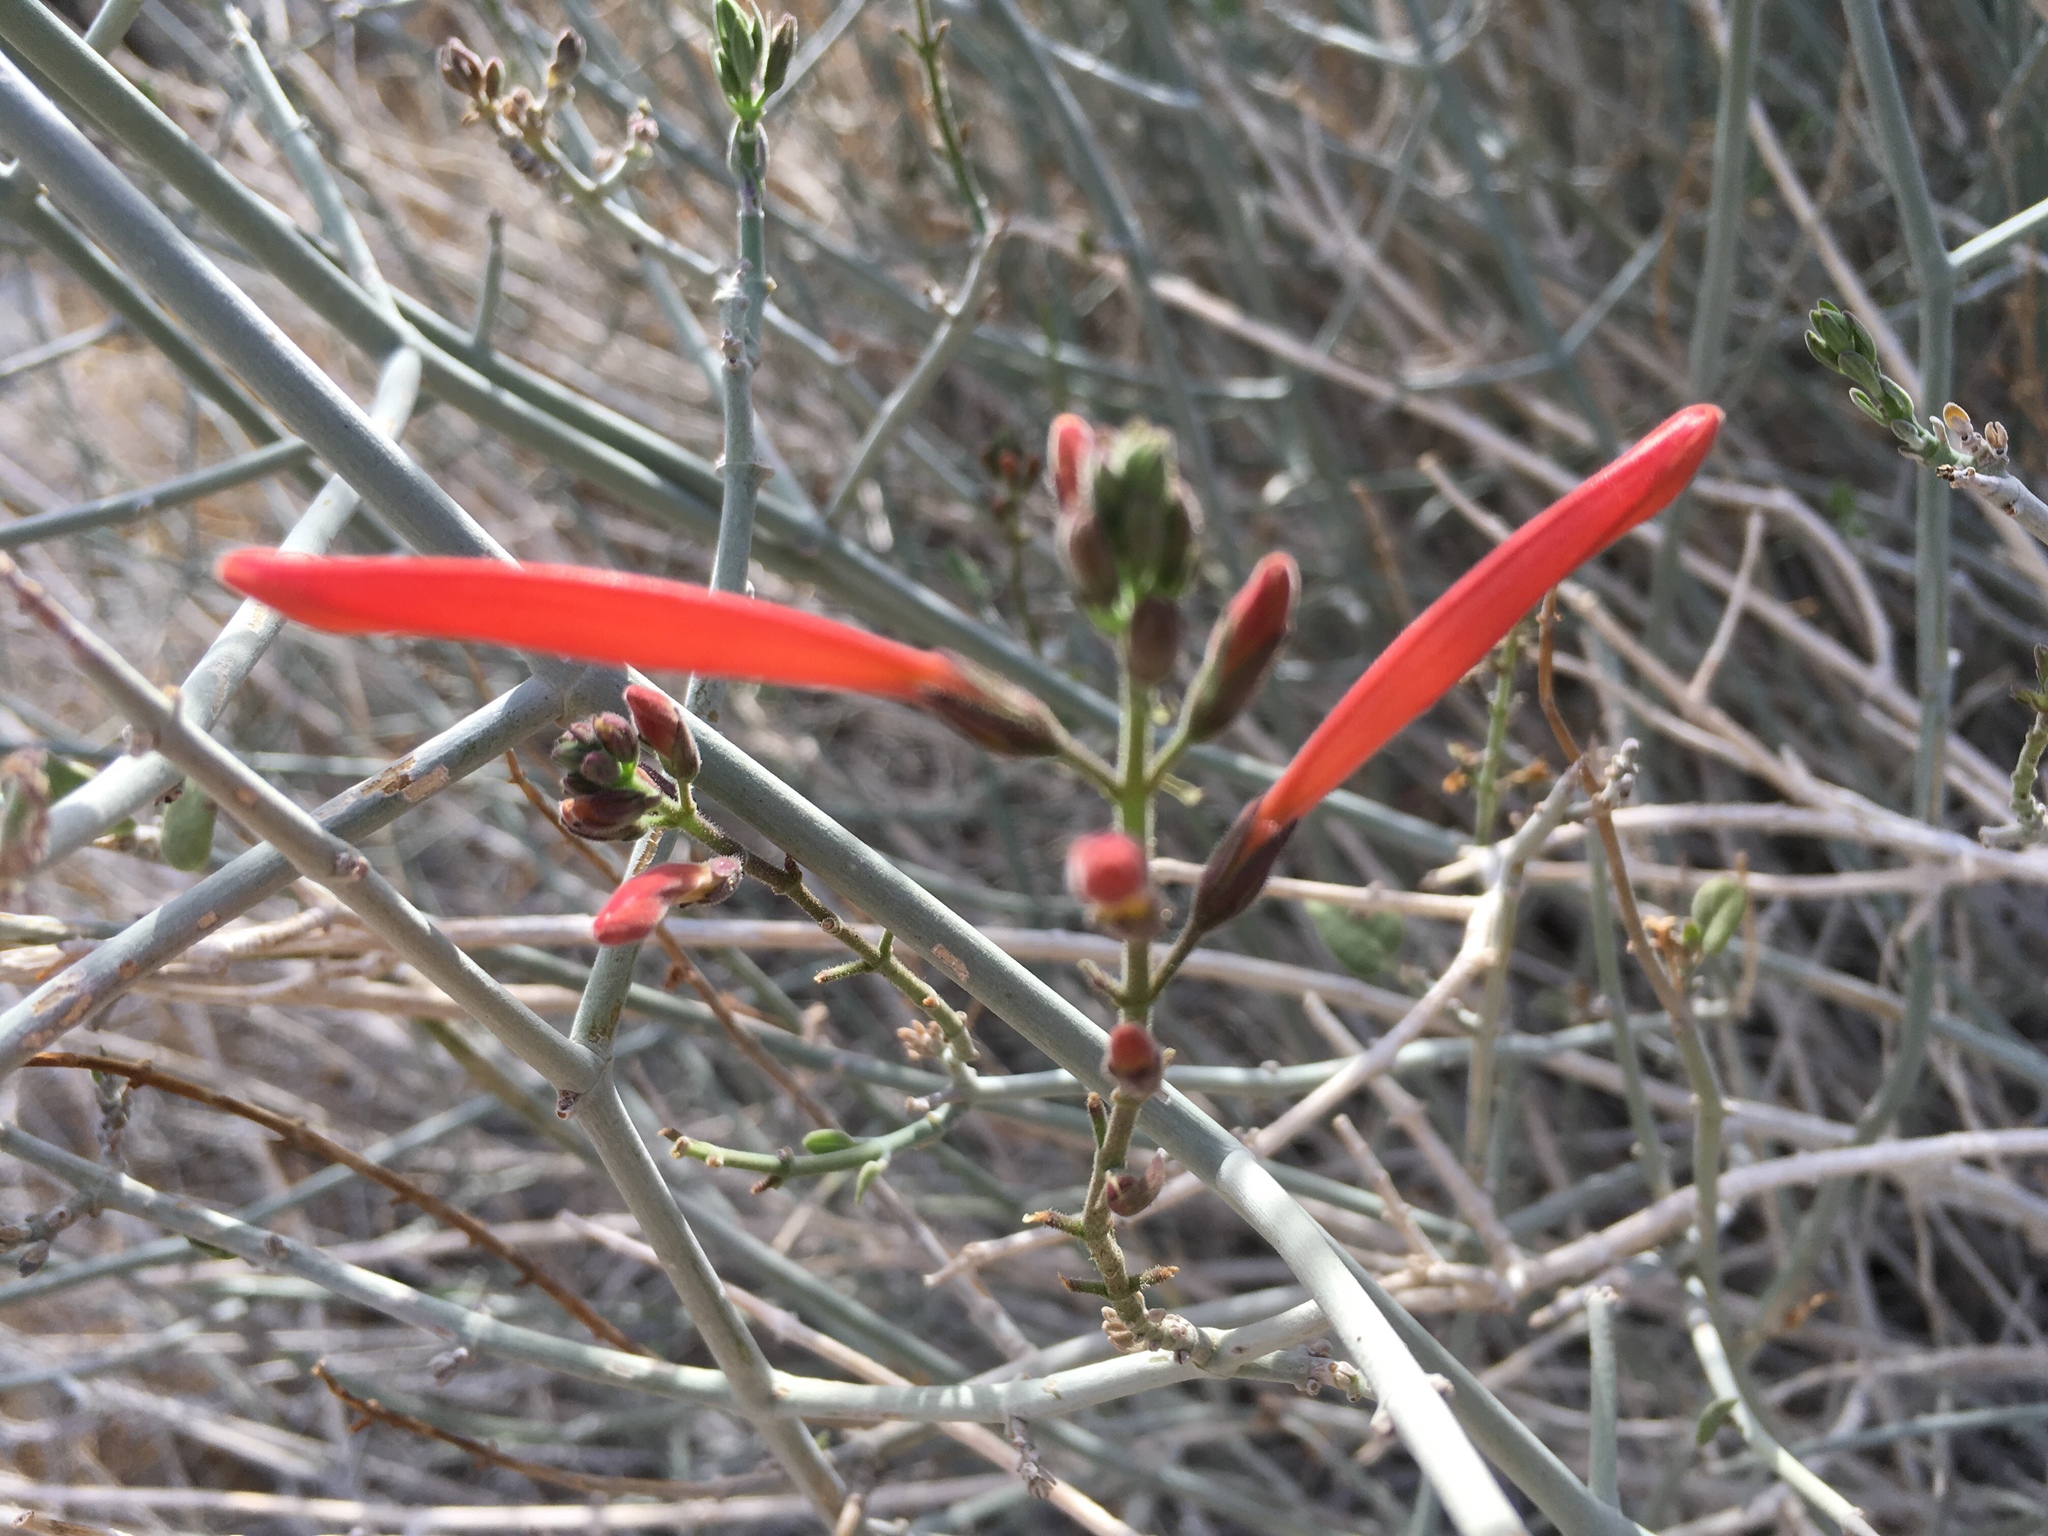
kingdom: Plantae
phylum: Tracheophyta
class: Magnoliopsida
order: Lamiales
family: Acanthaceae
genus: Justicia
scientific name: Justicia californica
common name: Chuparosa-honeysuckle
